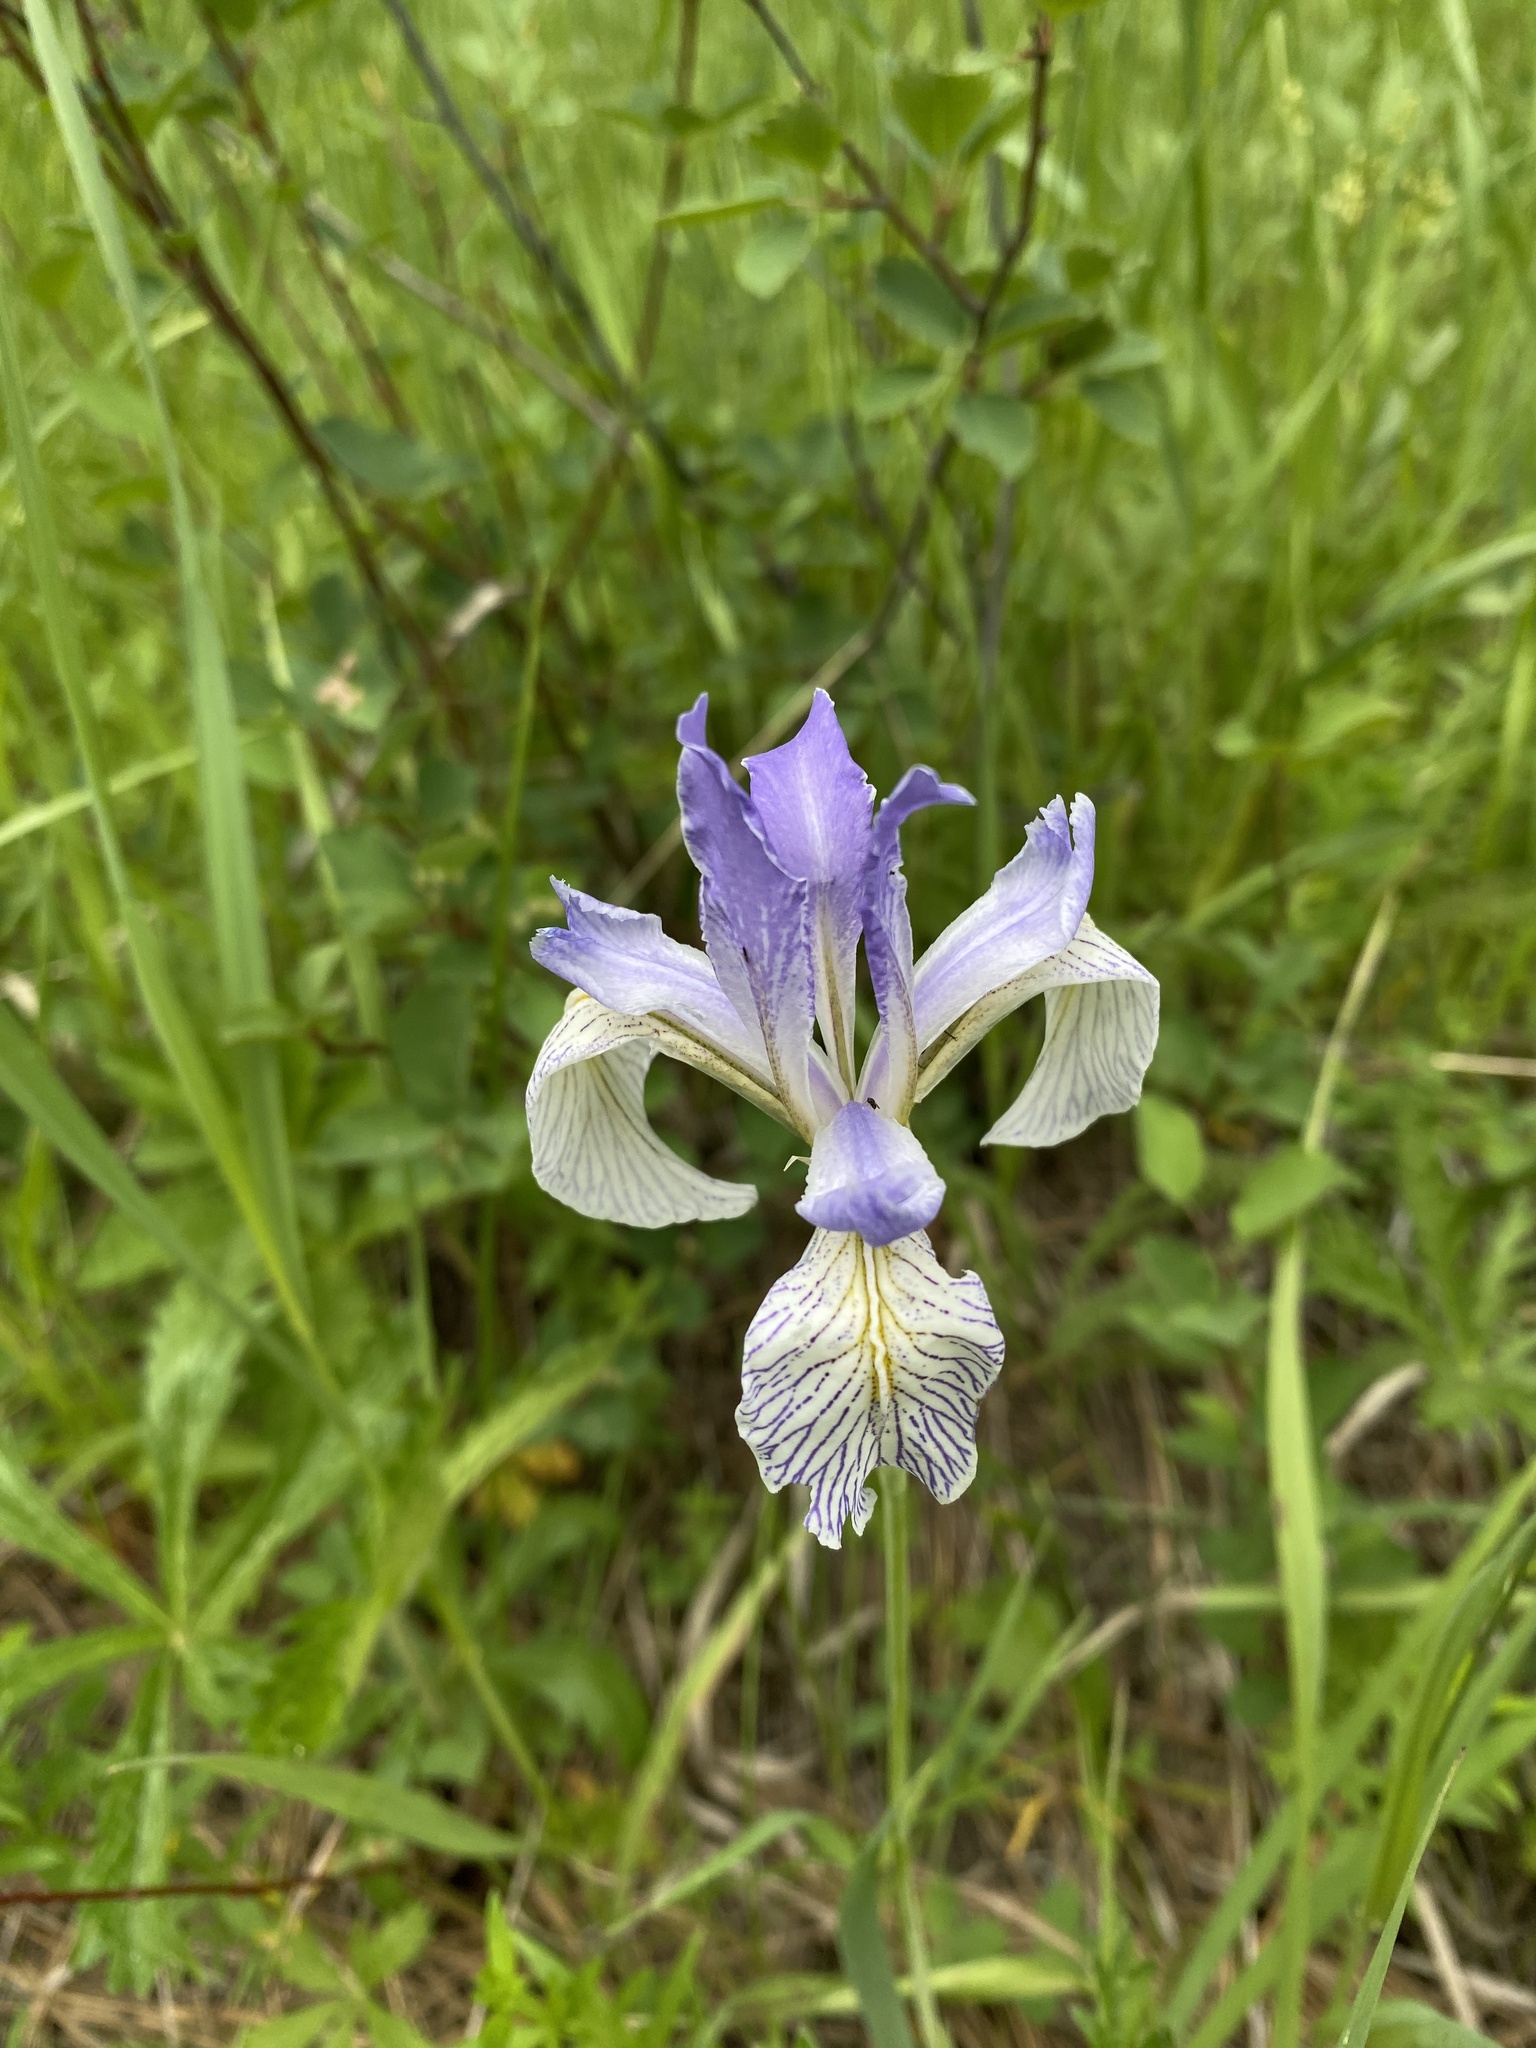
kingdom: Plantae
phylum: Tracheophyta
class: Liliopsida
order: Asparagales
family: Iridaceae
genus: Iris
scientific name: Iris missouriensis
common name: Rocky mountain iris
